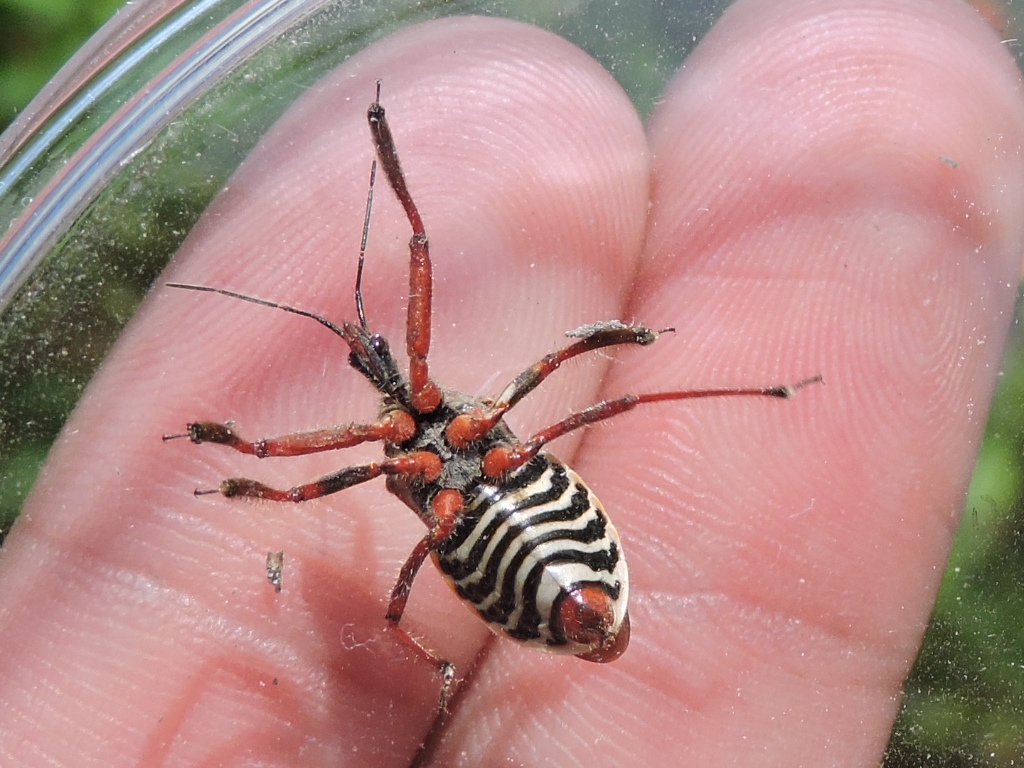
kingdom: Animalia
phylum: Arthropoda
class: Insecta
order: Hemiptera
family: Reduviidae
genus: Apiomerus
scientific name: Apiomerus spissipes
